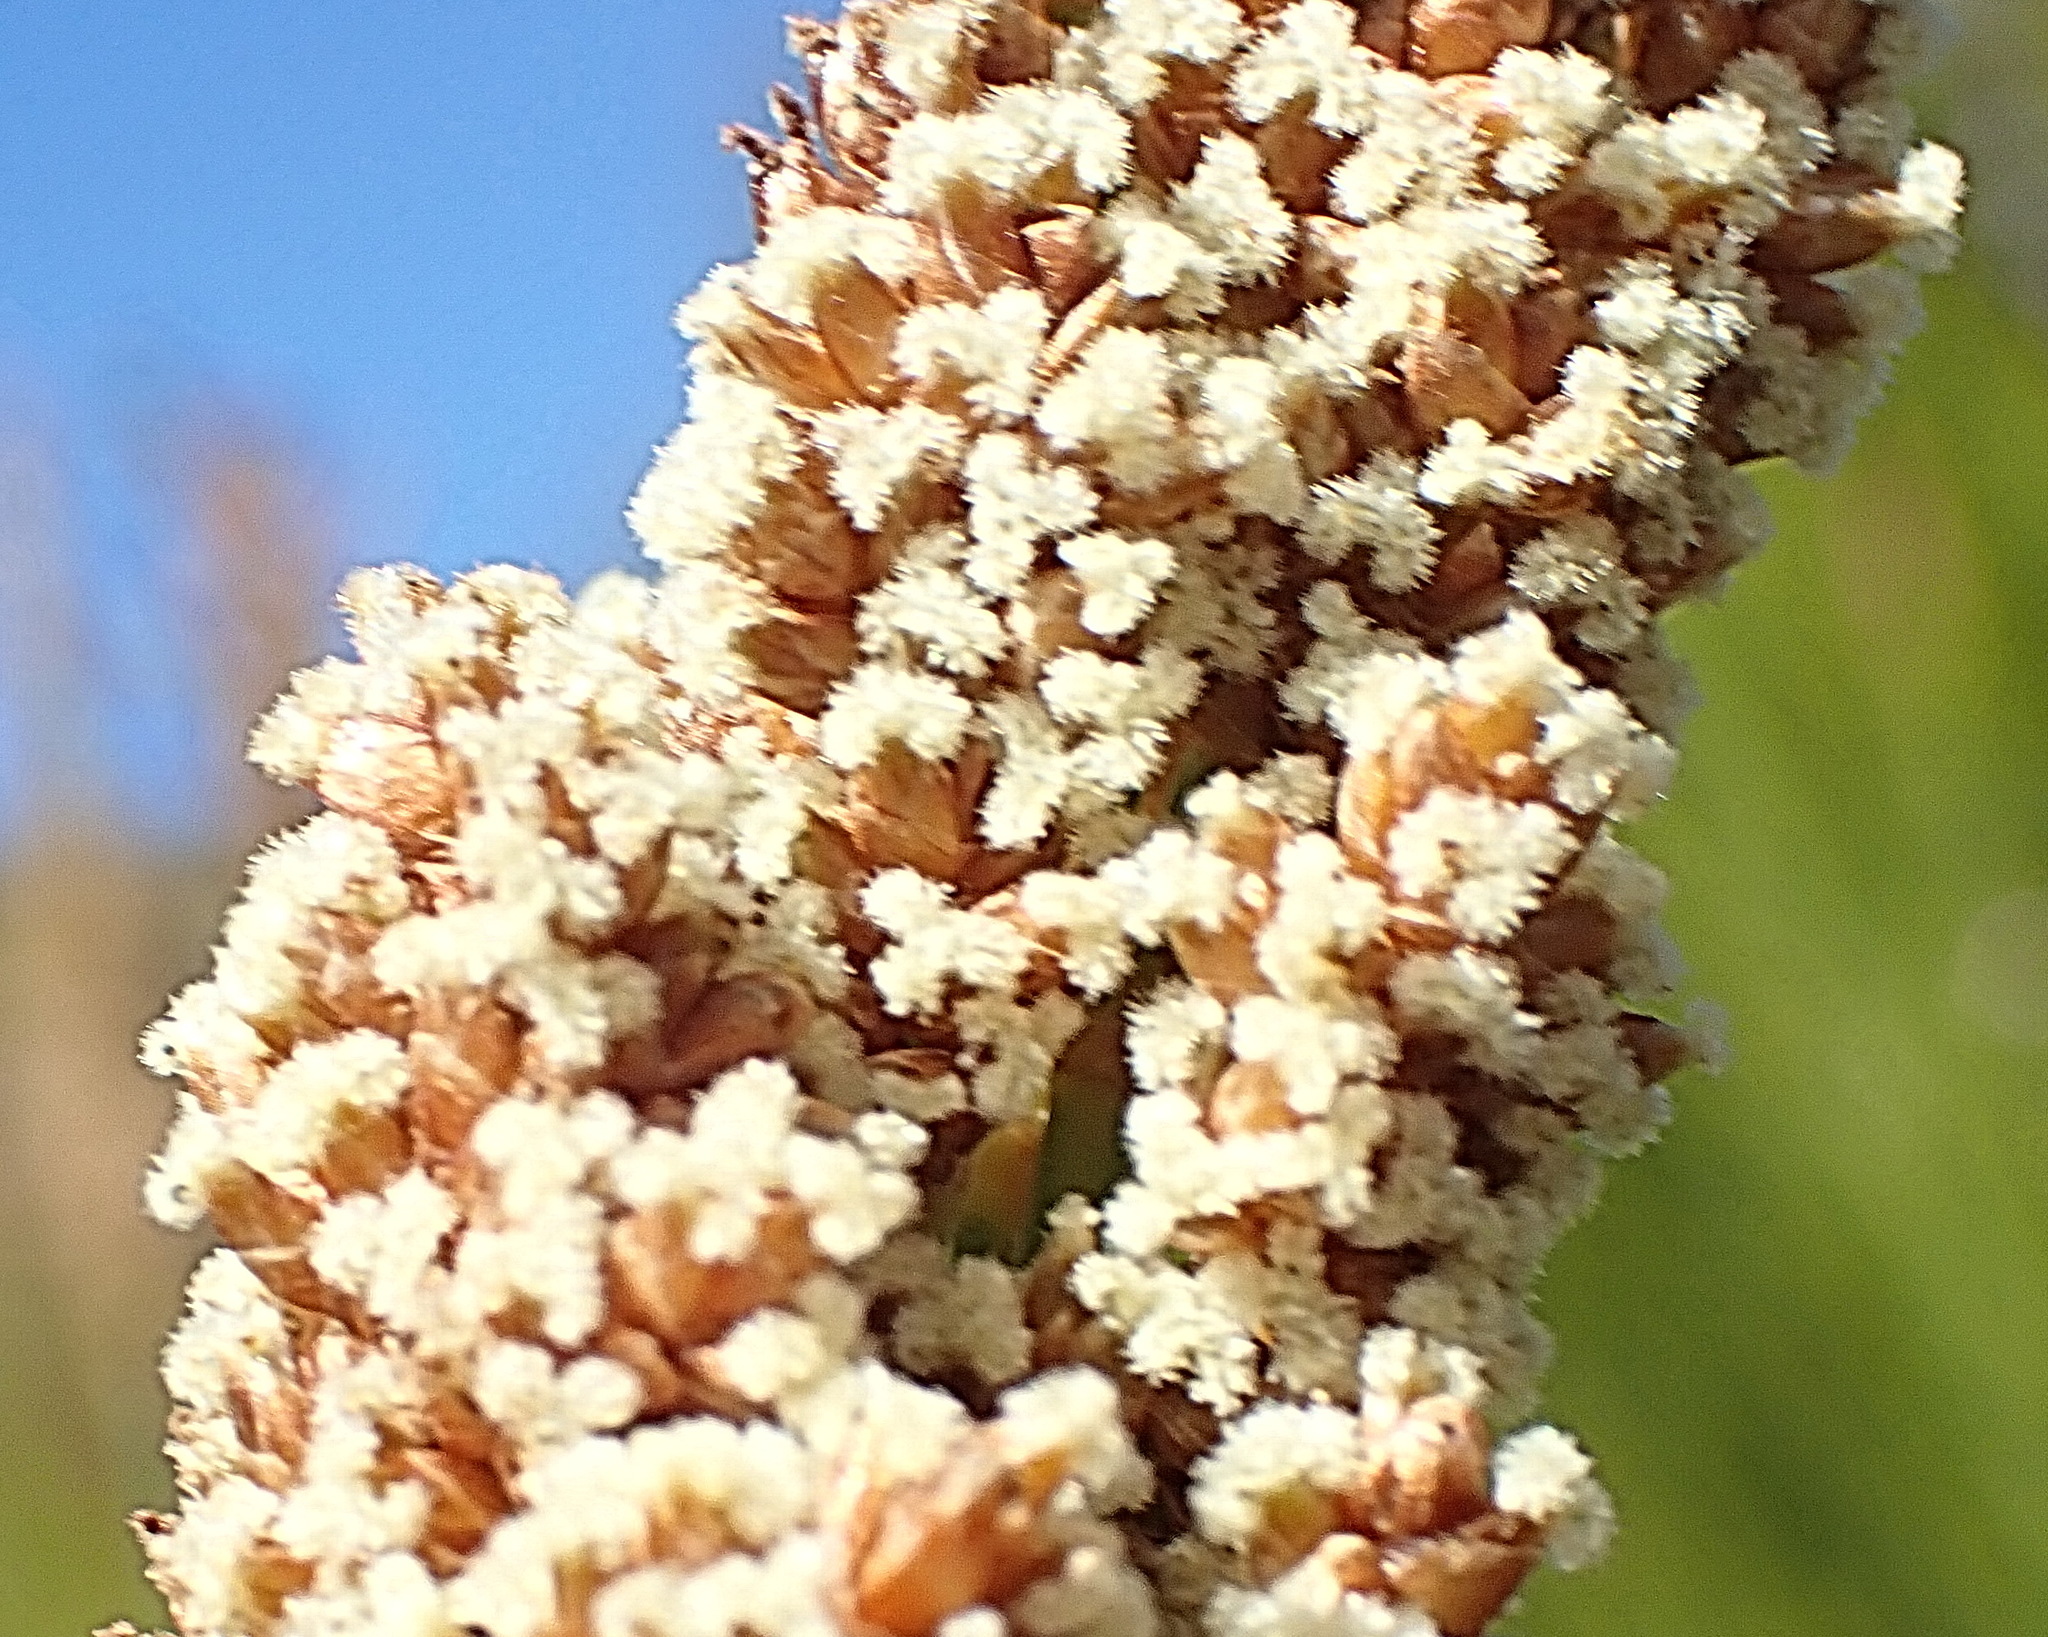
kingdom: Plantae
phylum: Tracheophyta
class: Liliopsida
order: Poales
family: Restionaceae
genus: Elegia
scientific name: Elegia capensis
